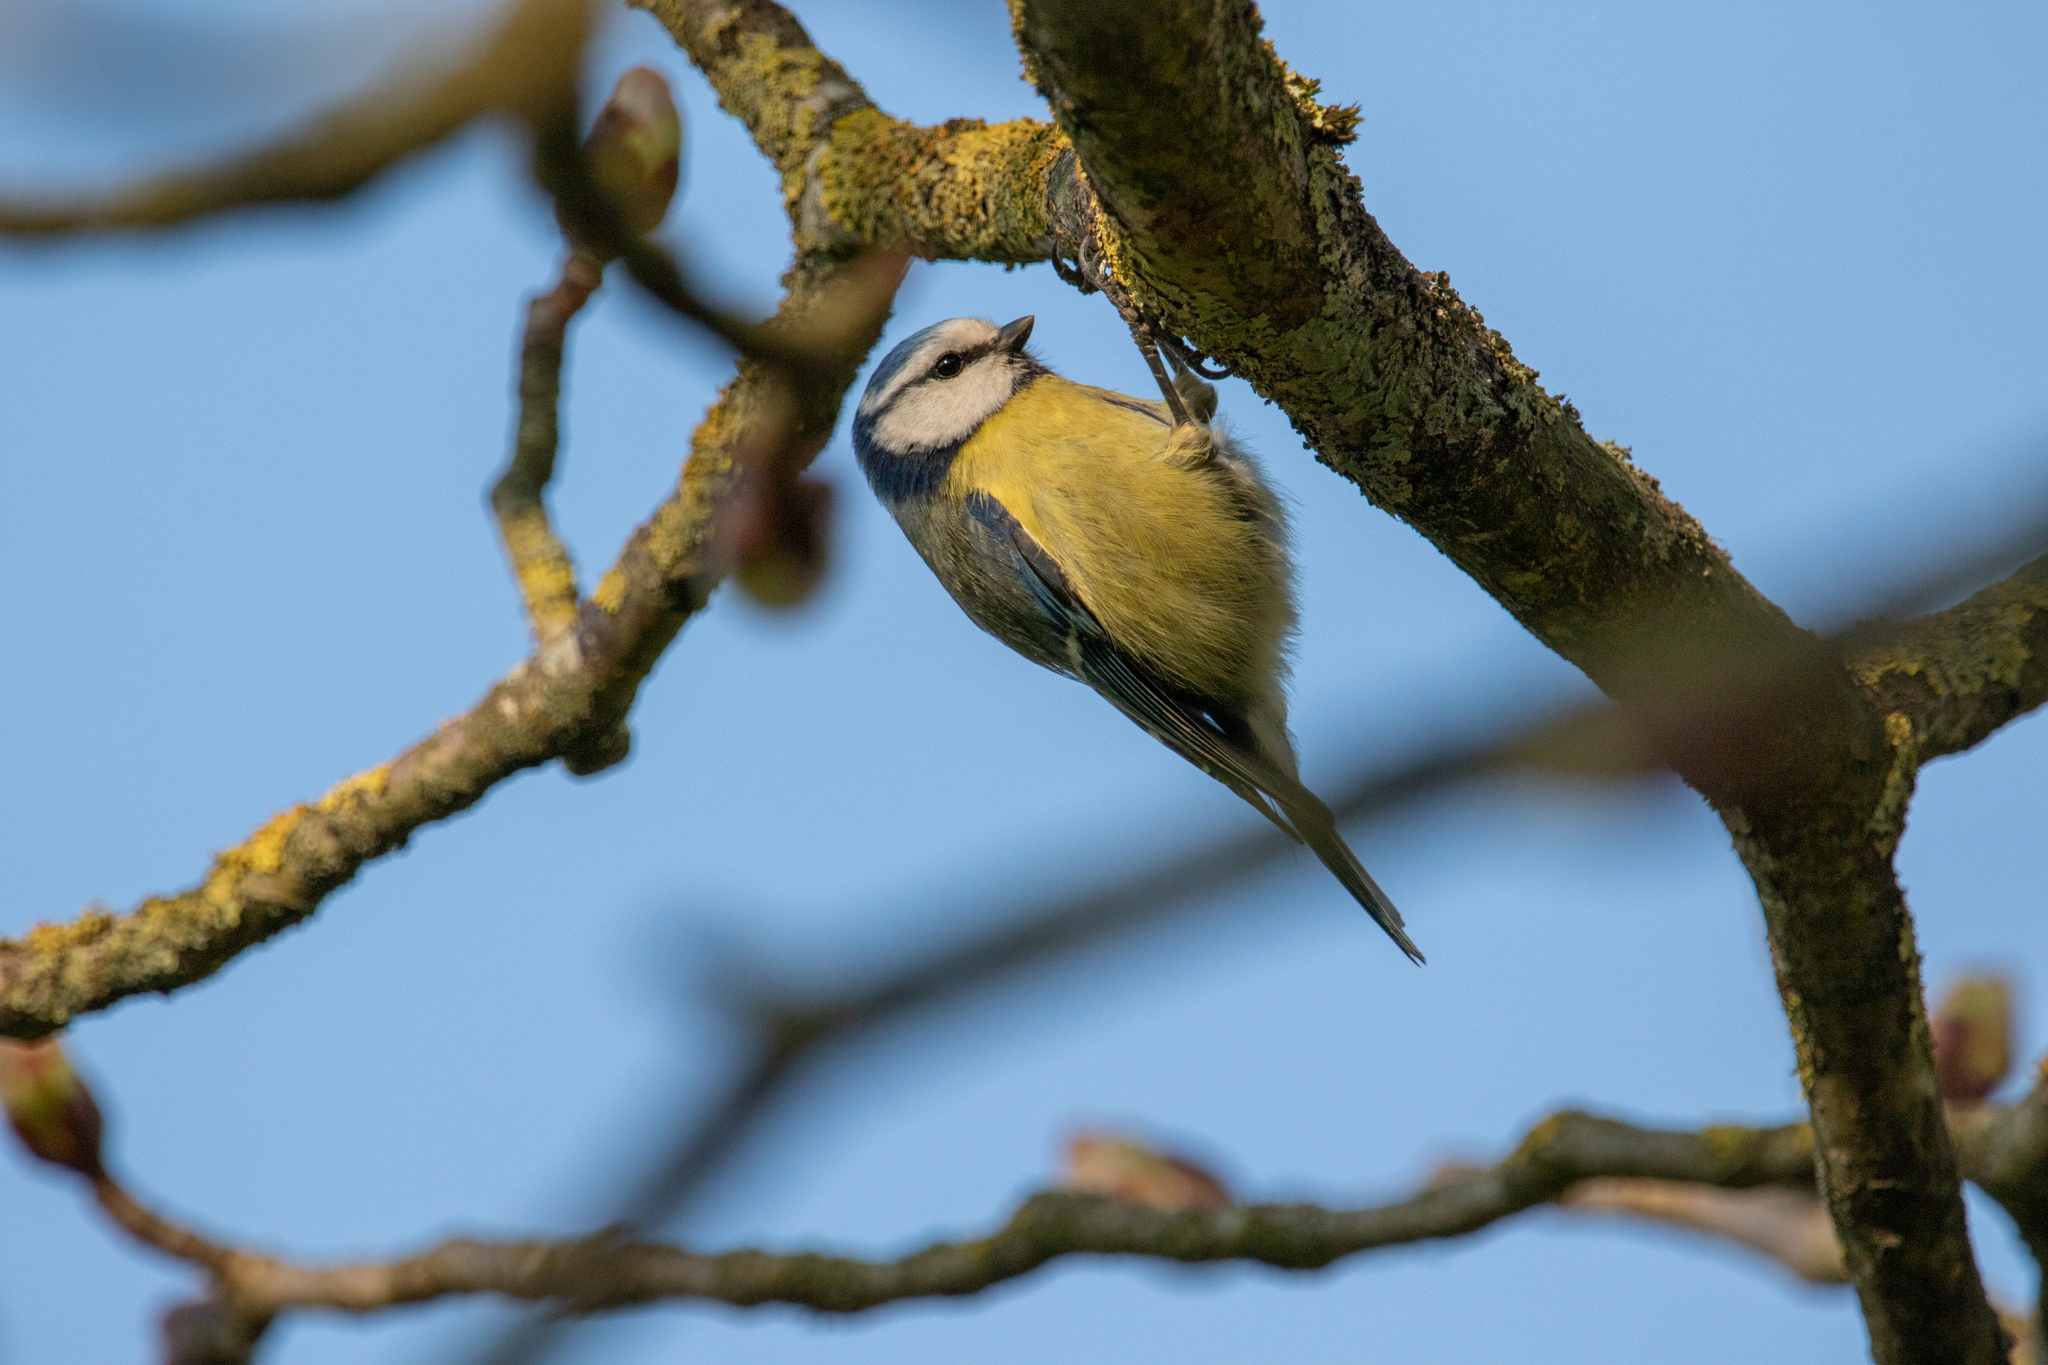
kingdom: Animalia
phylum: Chordata
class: Aves
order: Passeriformes
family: Paridae
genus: Cyanistes
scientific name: Cyanistes caeruleus
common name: Eurasian blue tit
